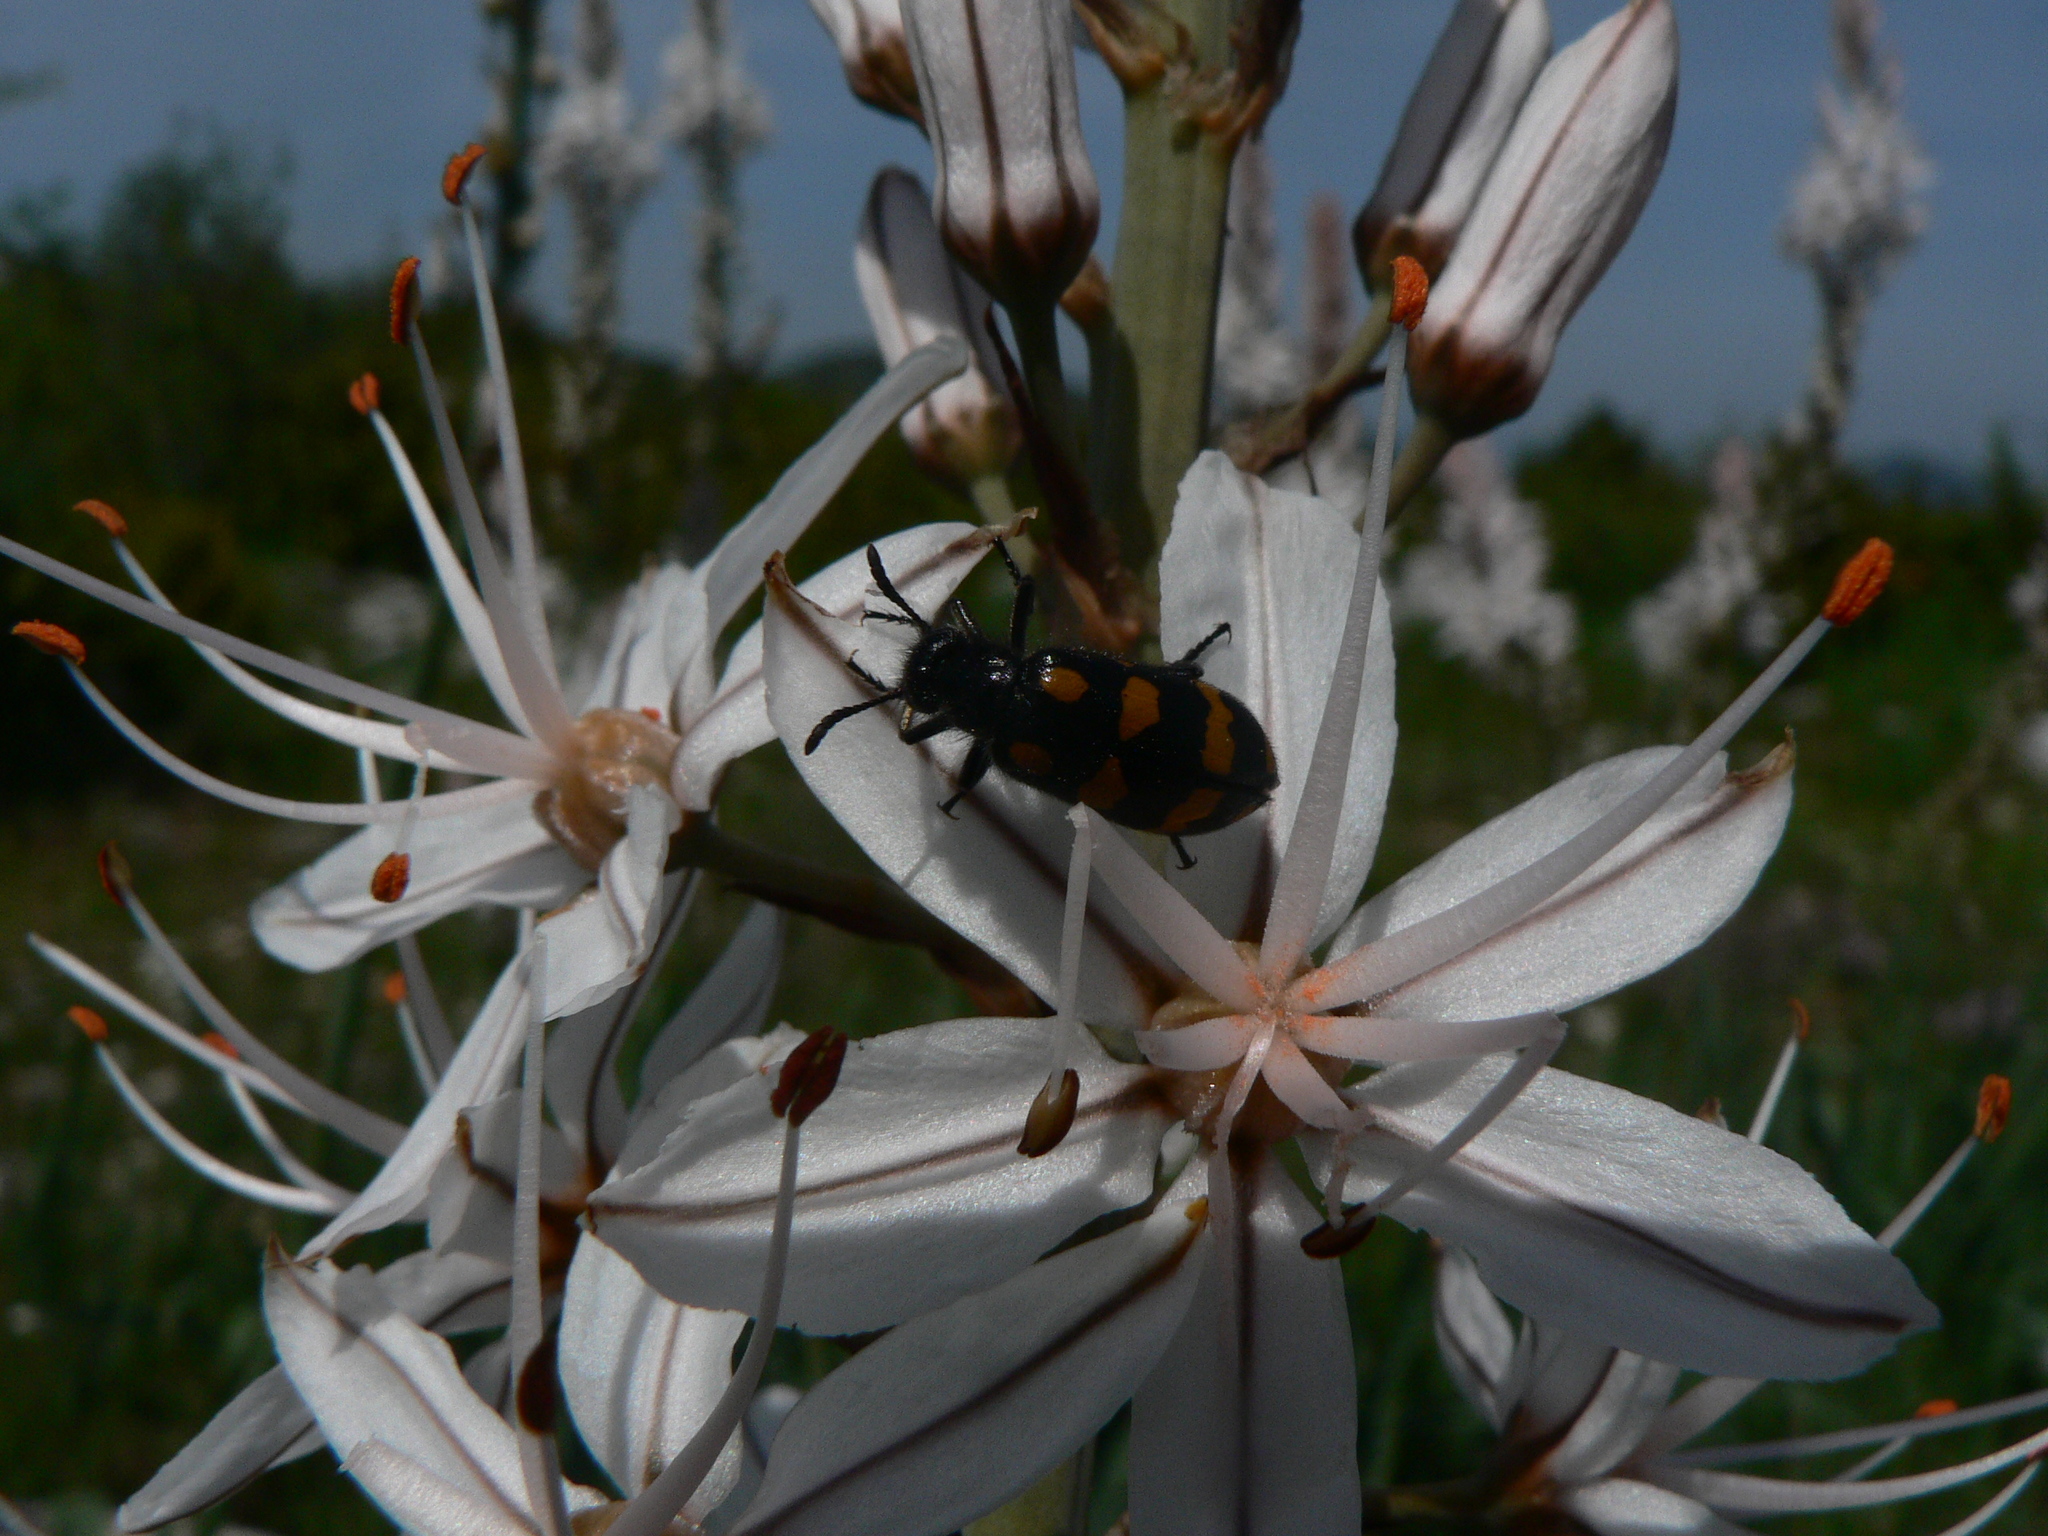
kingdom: Animalia
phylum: Arthropoda
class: Insecta
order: Coleoptera
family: Meloidae
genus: Hycleus
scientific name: Hycleus polymorphus
